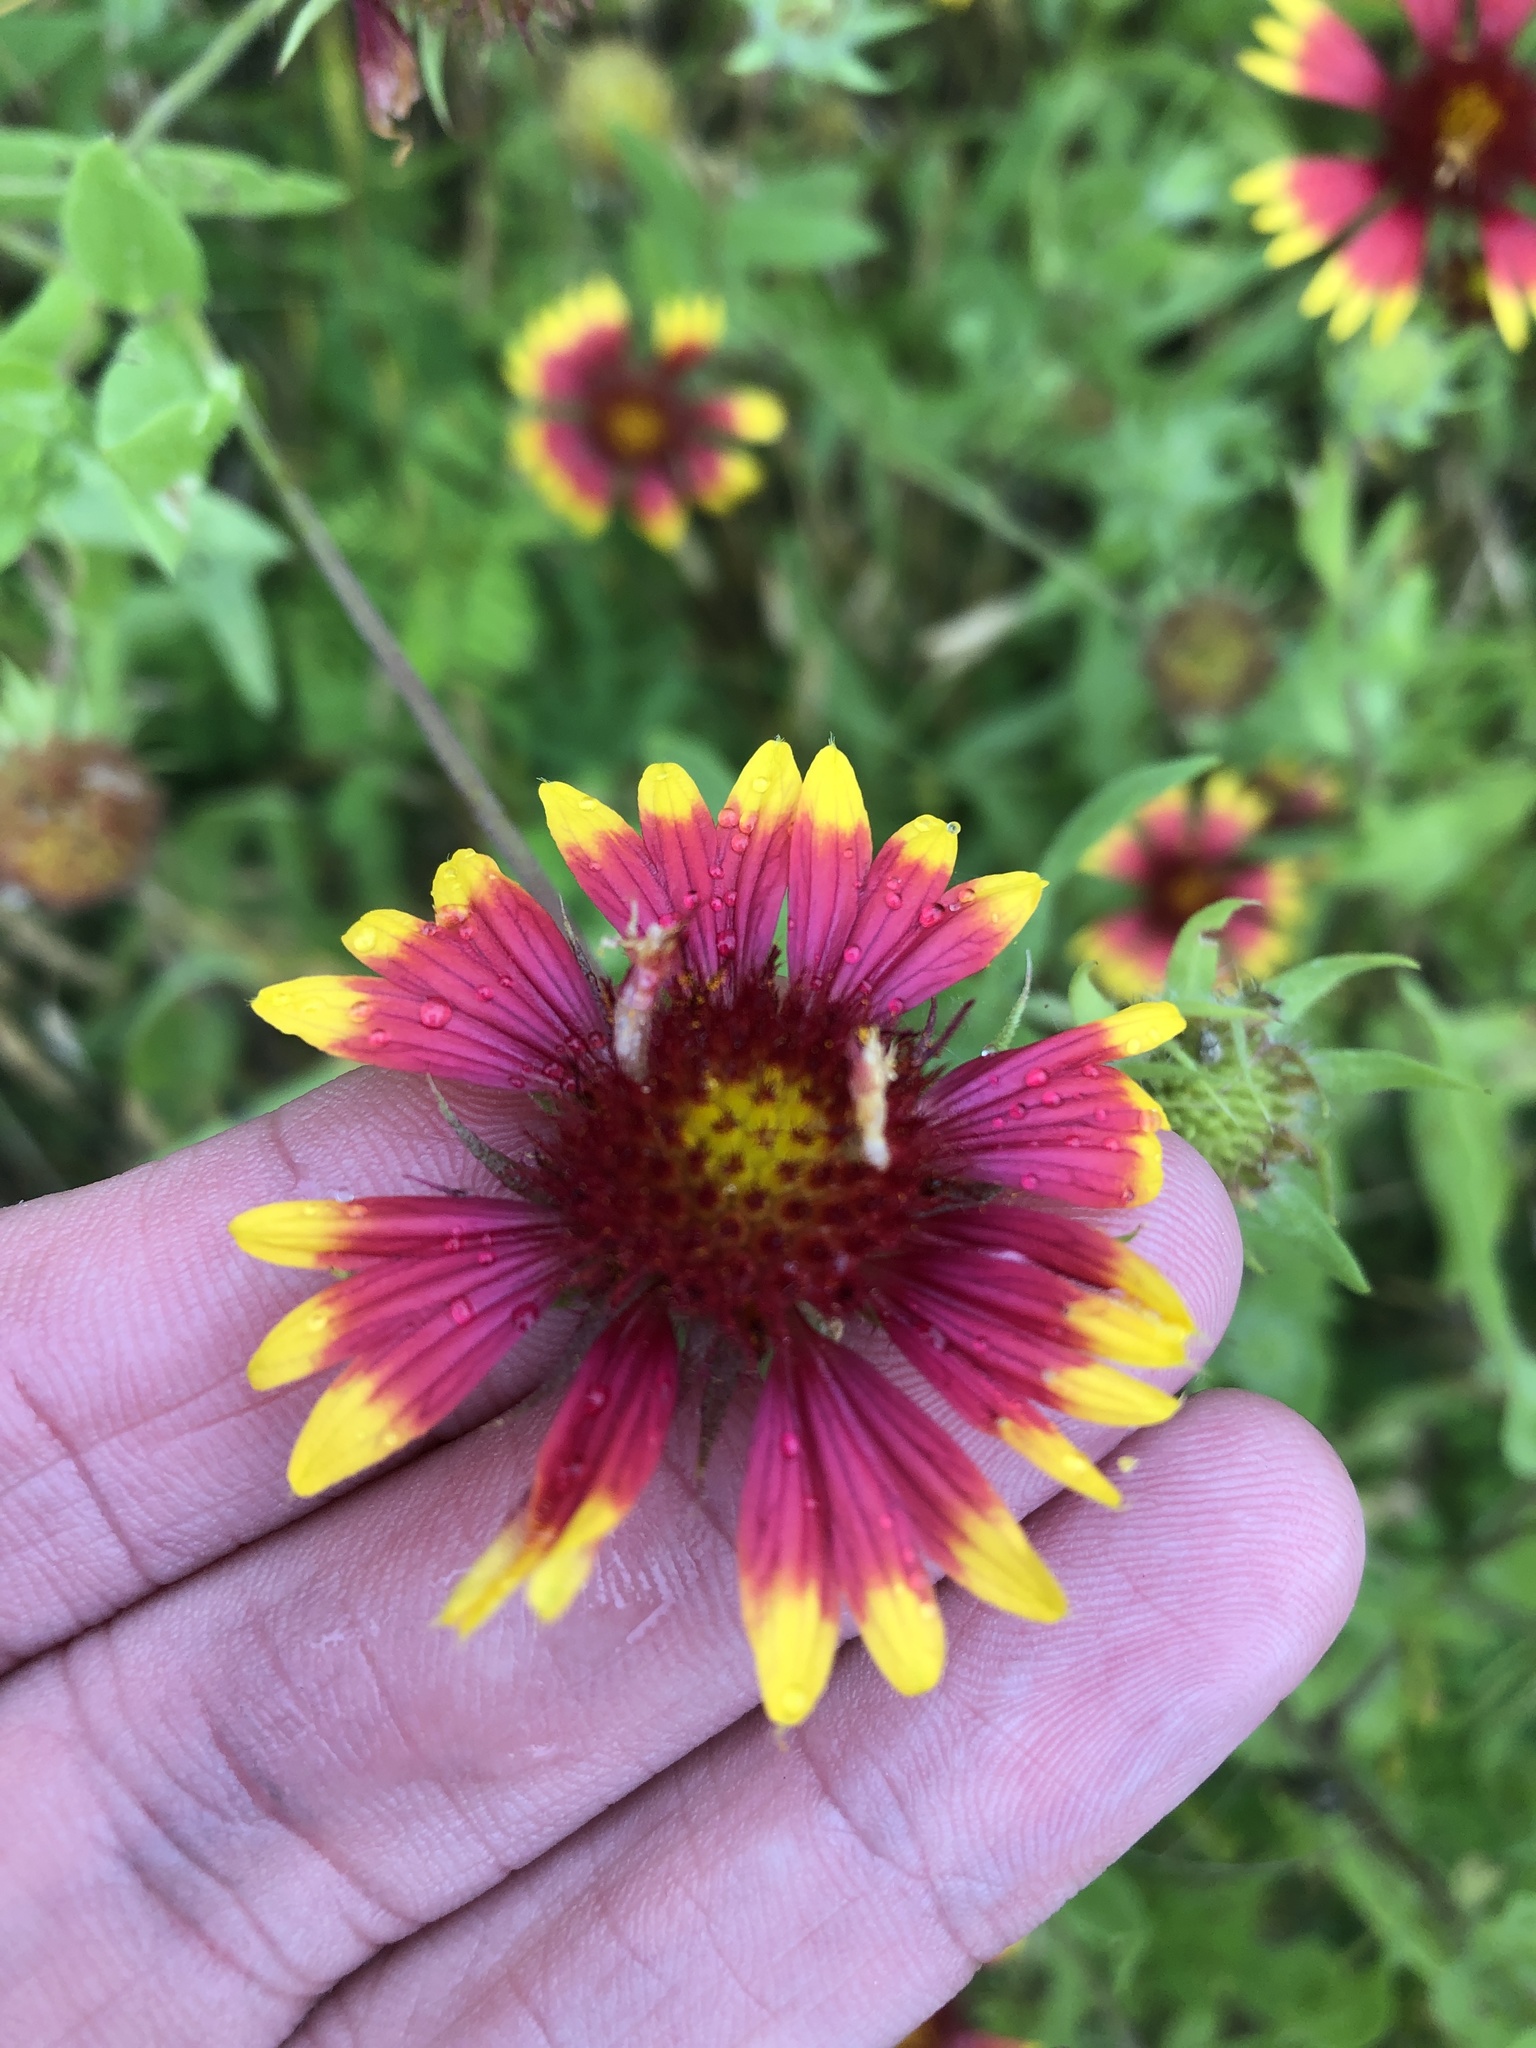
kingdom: Plantae
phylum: Tracheophyta
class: Magnoliopsida
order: Asterales
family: Asteraceae
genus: Gaillardia
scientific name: Gaillardia pulchella
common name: Firewheel
